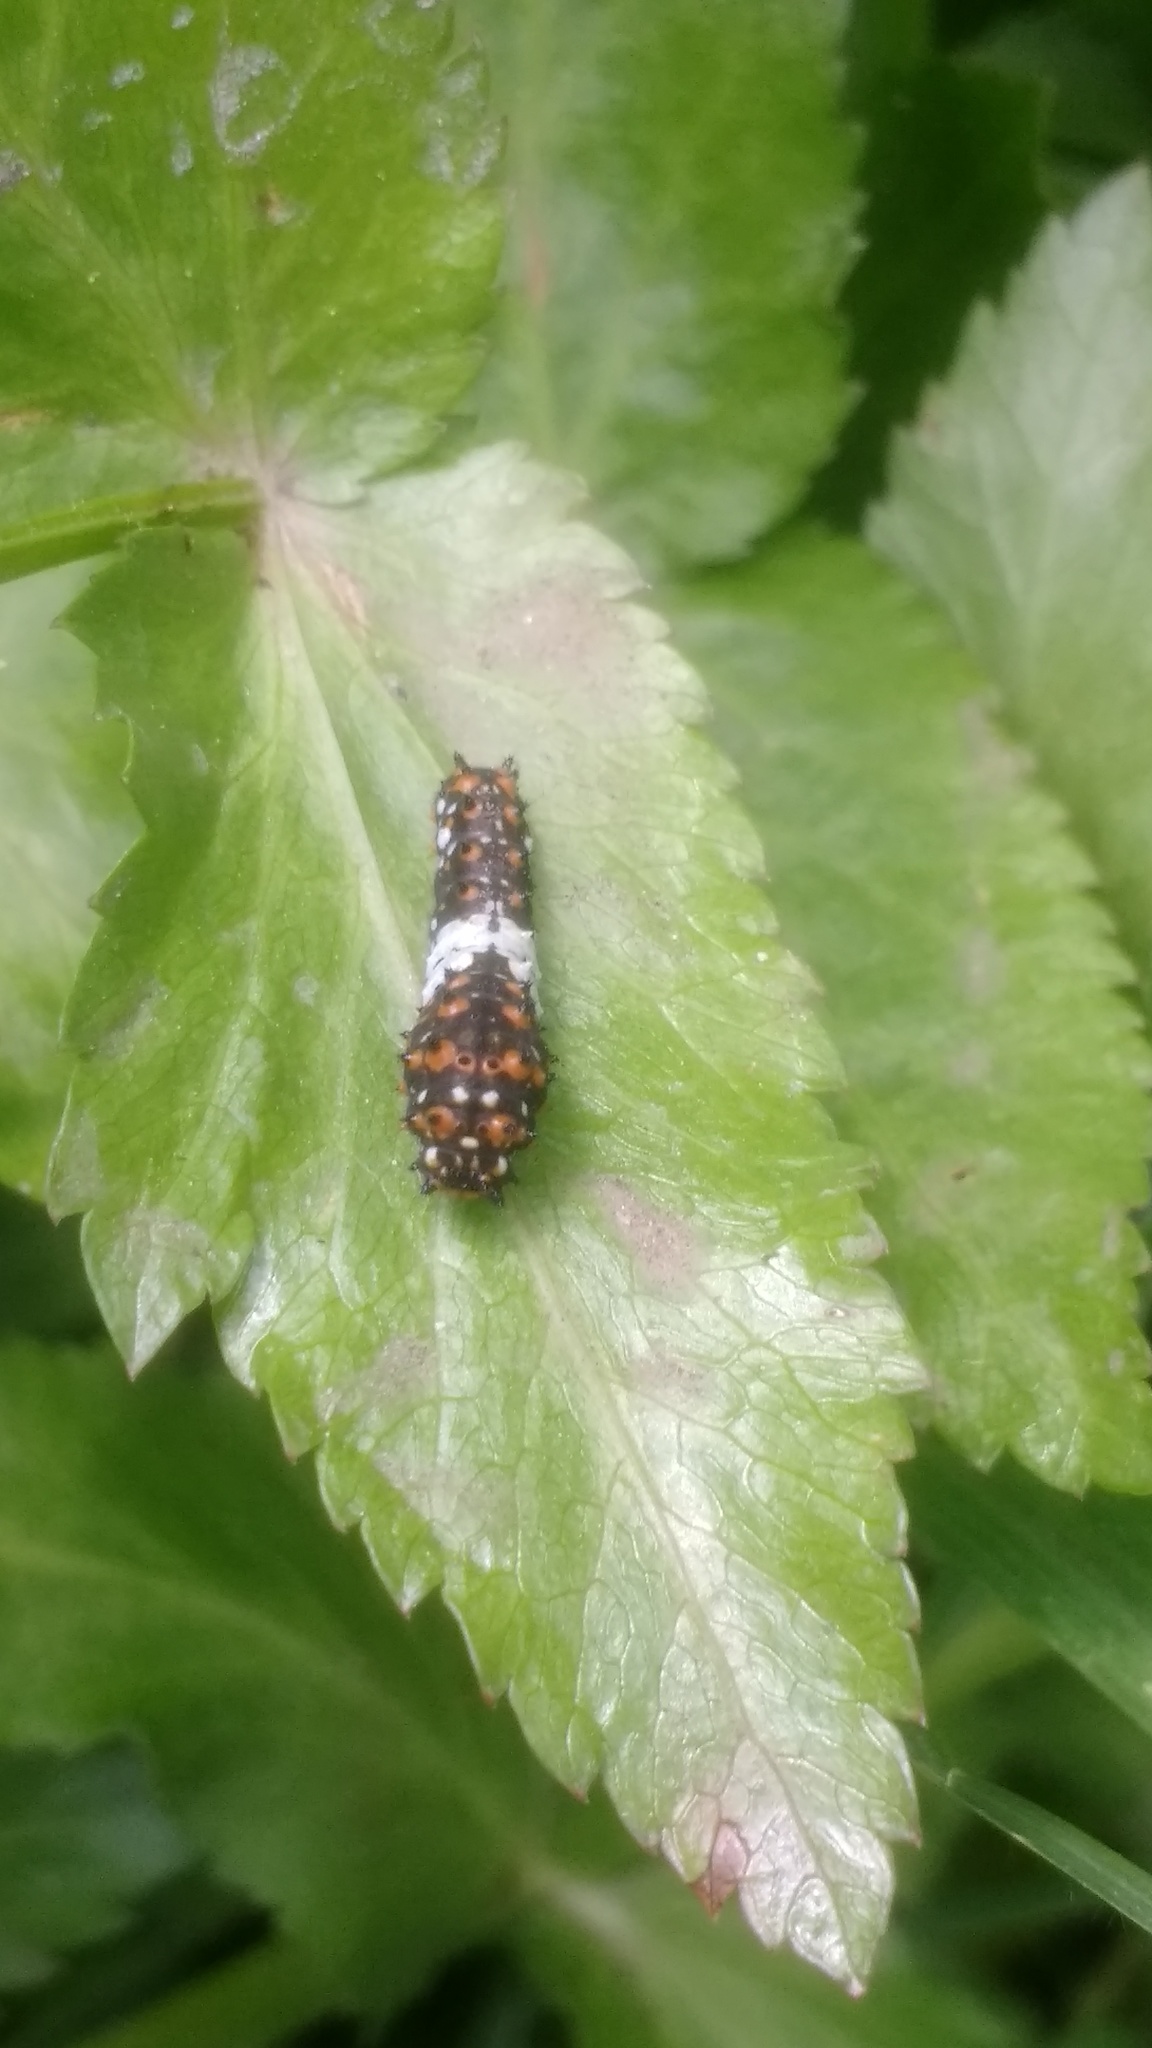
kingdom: Animalia
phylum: Arthropoda
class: Insecta
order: Lepidoptera
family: Papilionidae
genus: Papilio
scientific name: Papilio polyxenes
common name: Black swallowtail
